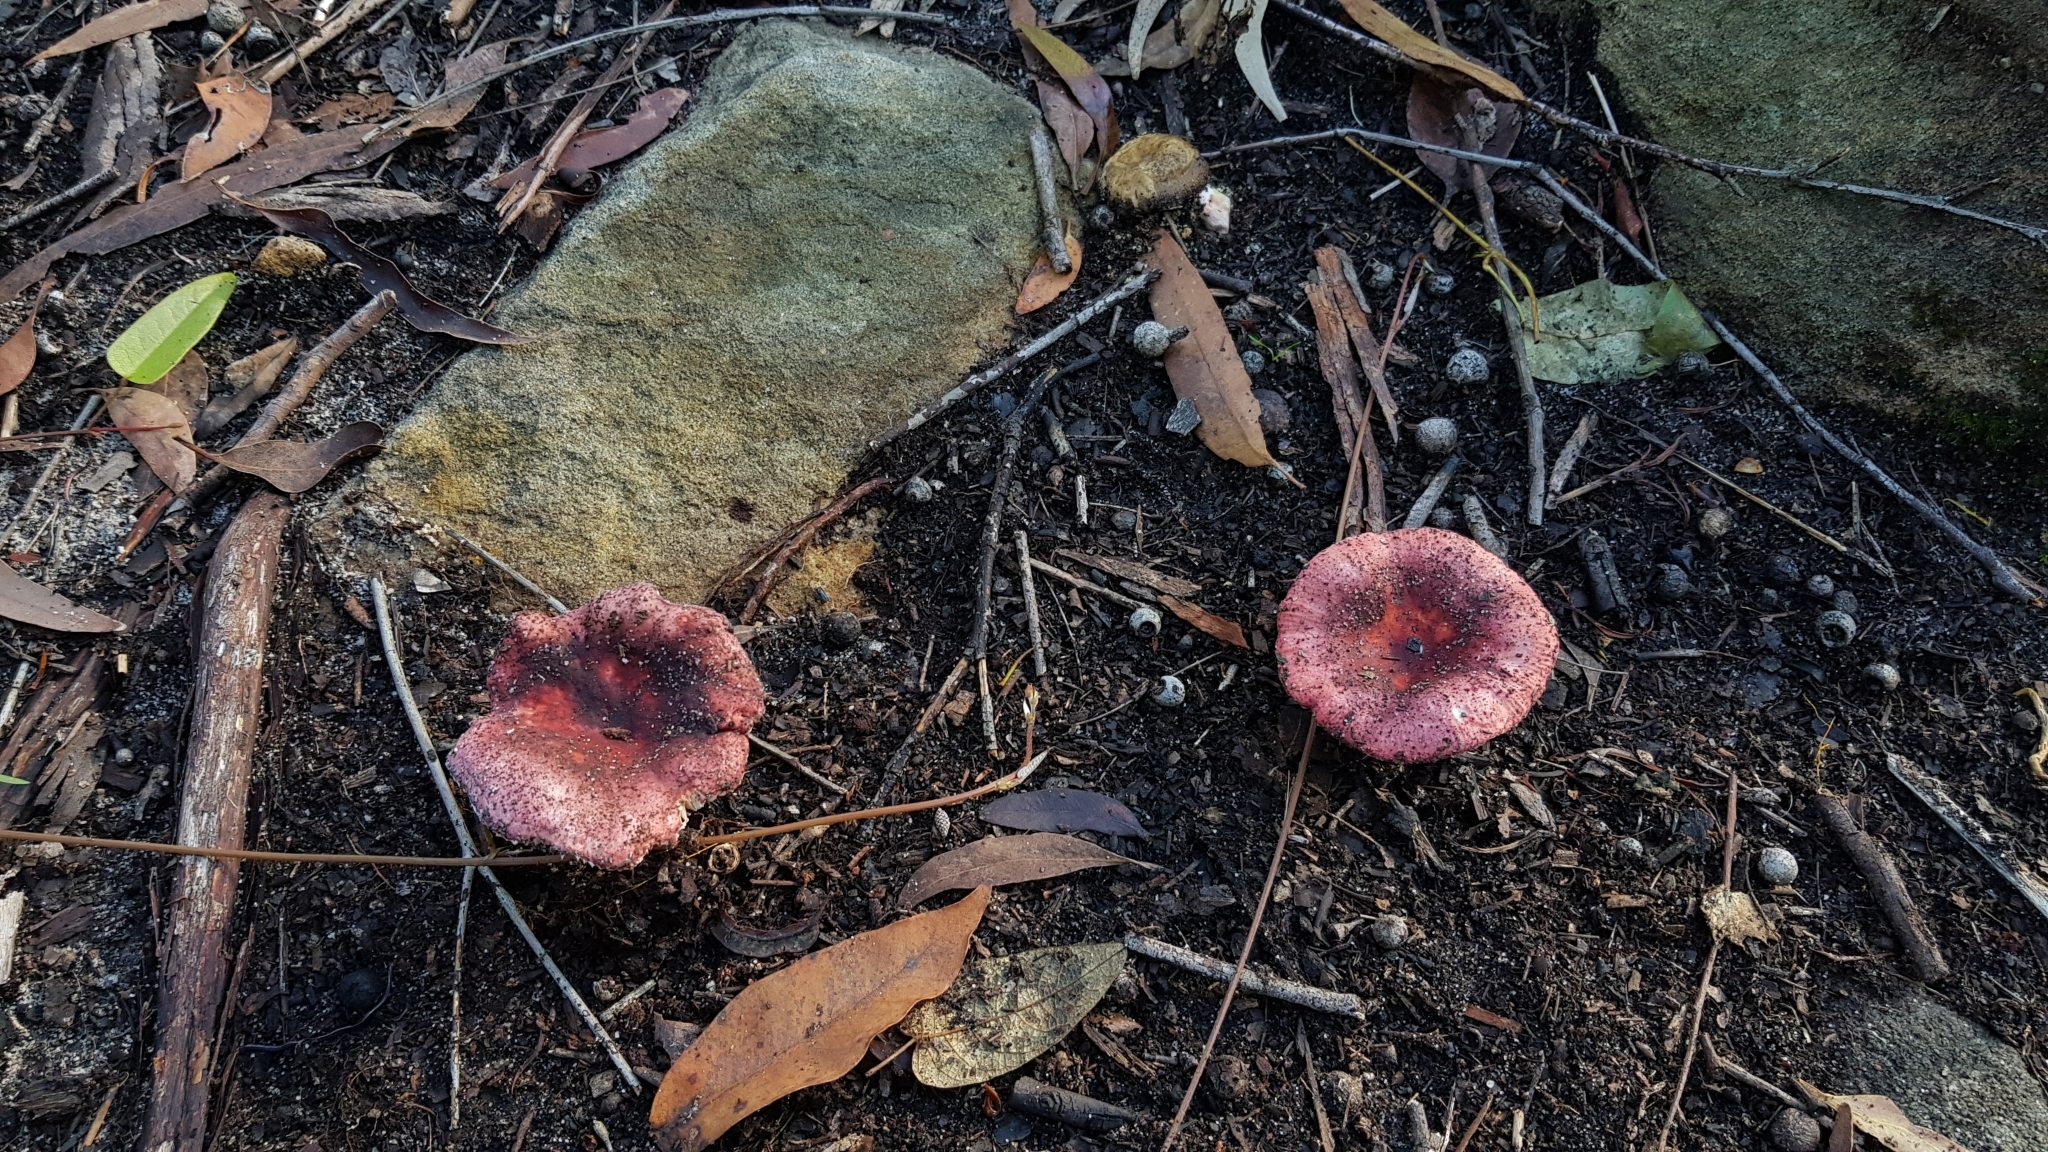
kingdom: Fungi
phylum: Basidiomycota
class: Agaricomycetes
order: Russulales
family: Russulaceae
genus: Russula
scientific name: Russula lenkunya
